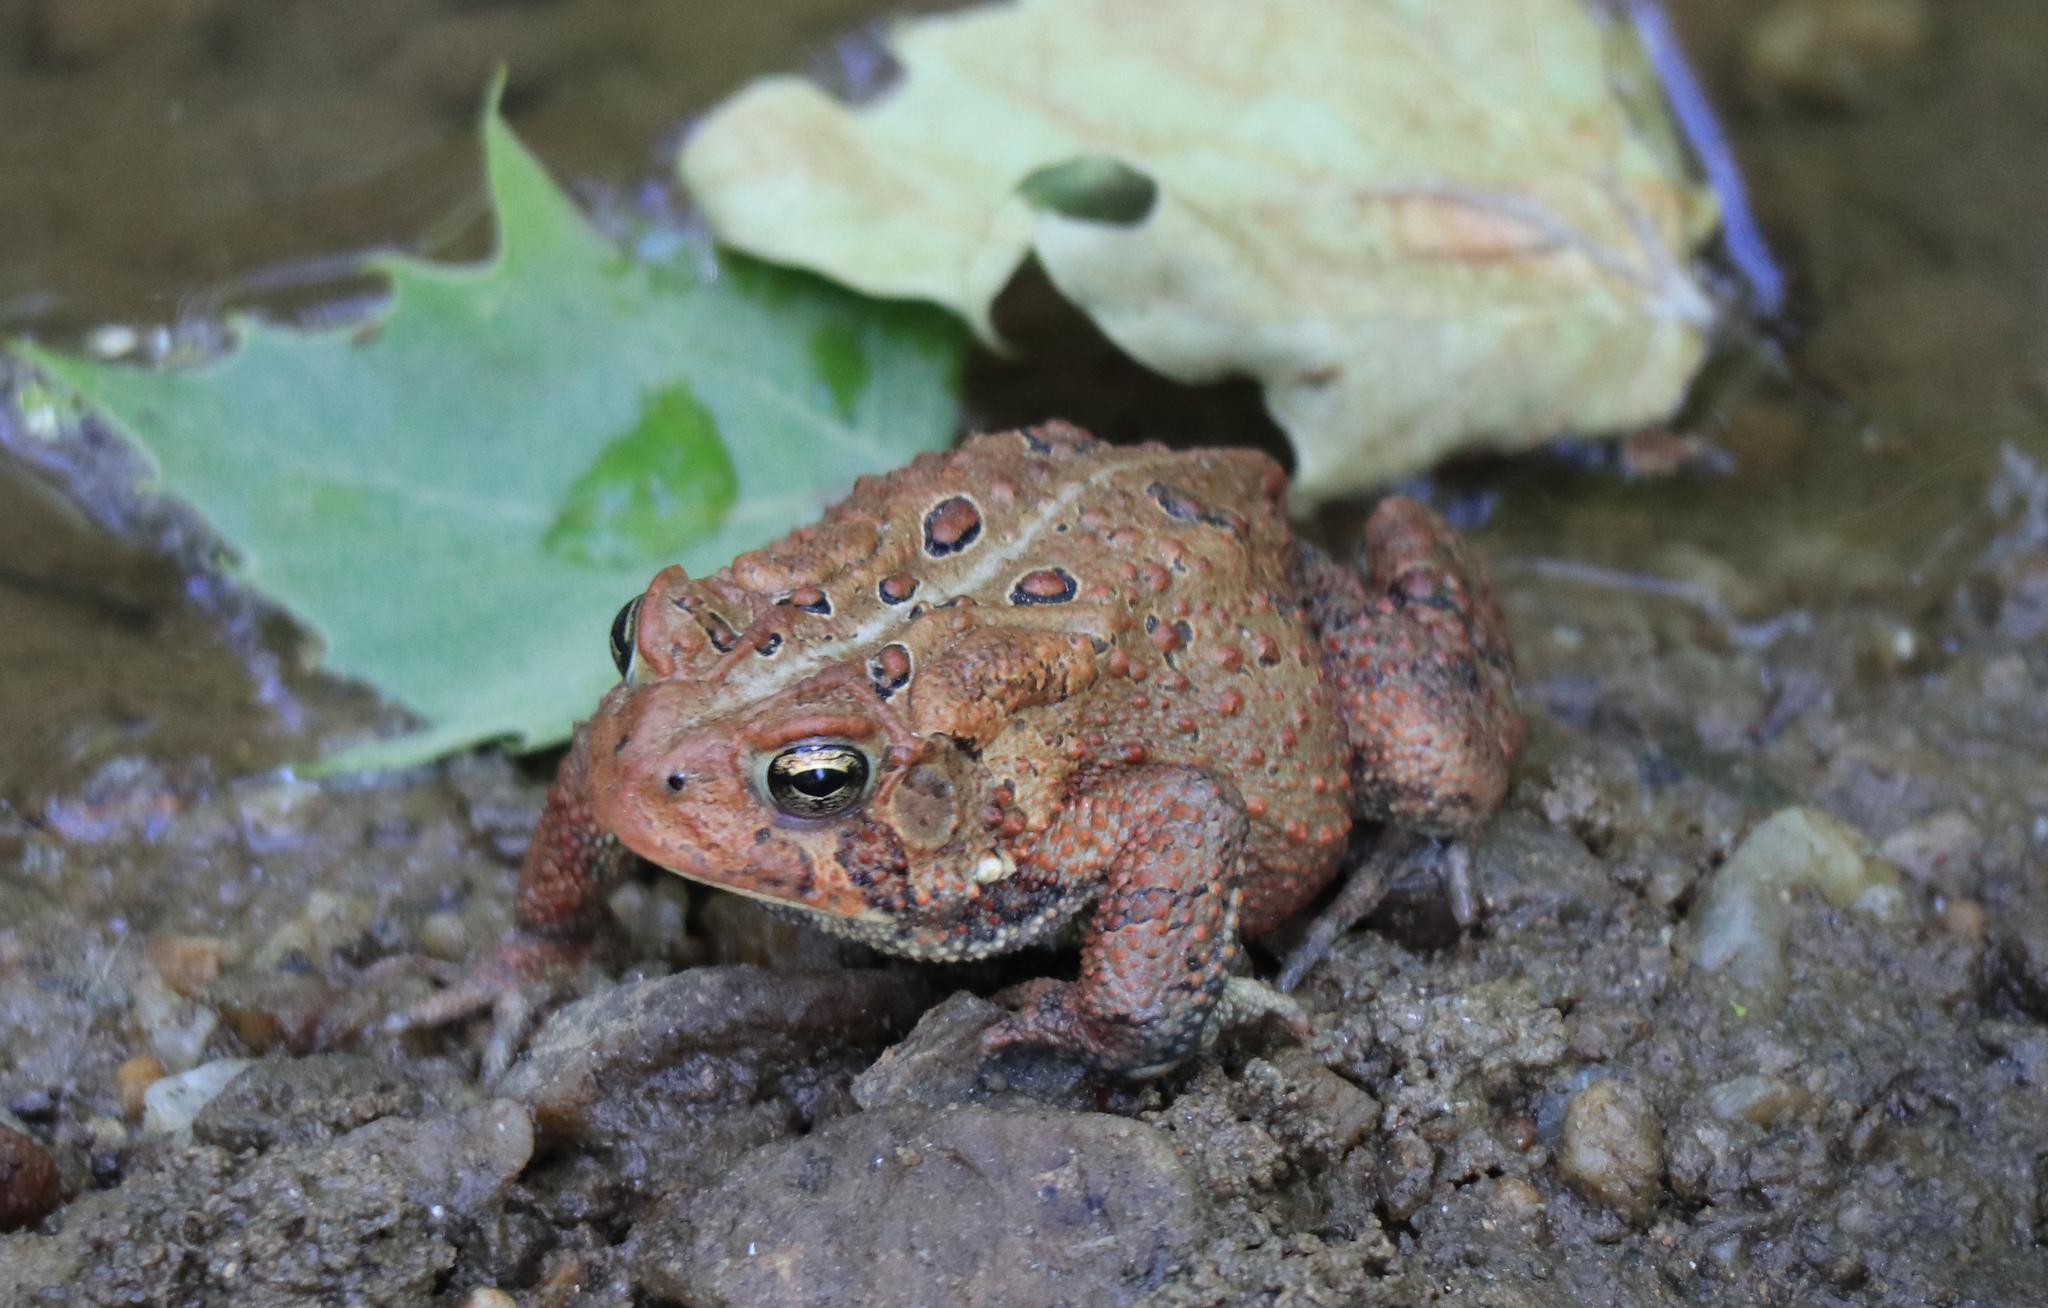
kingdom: Animalia
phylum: Chordata
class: Amphibia
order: Anura
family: Bufonidae
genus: Anaxyrus
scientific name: Anaxyrus americanus
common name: American toad
